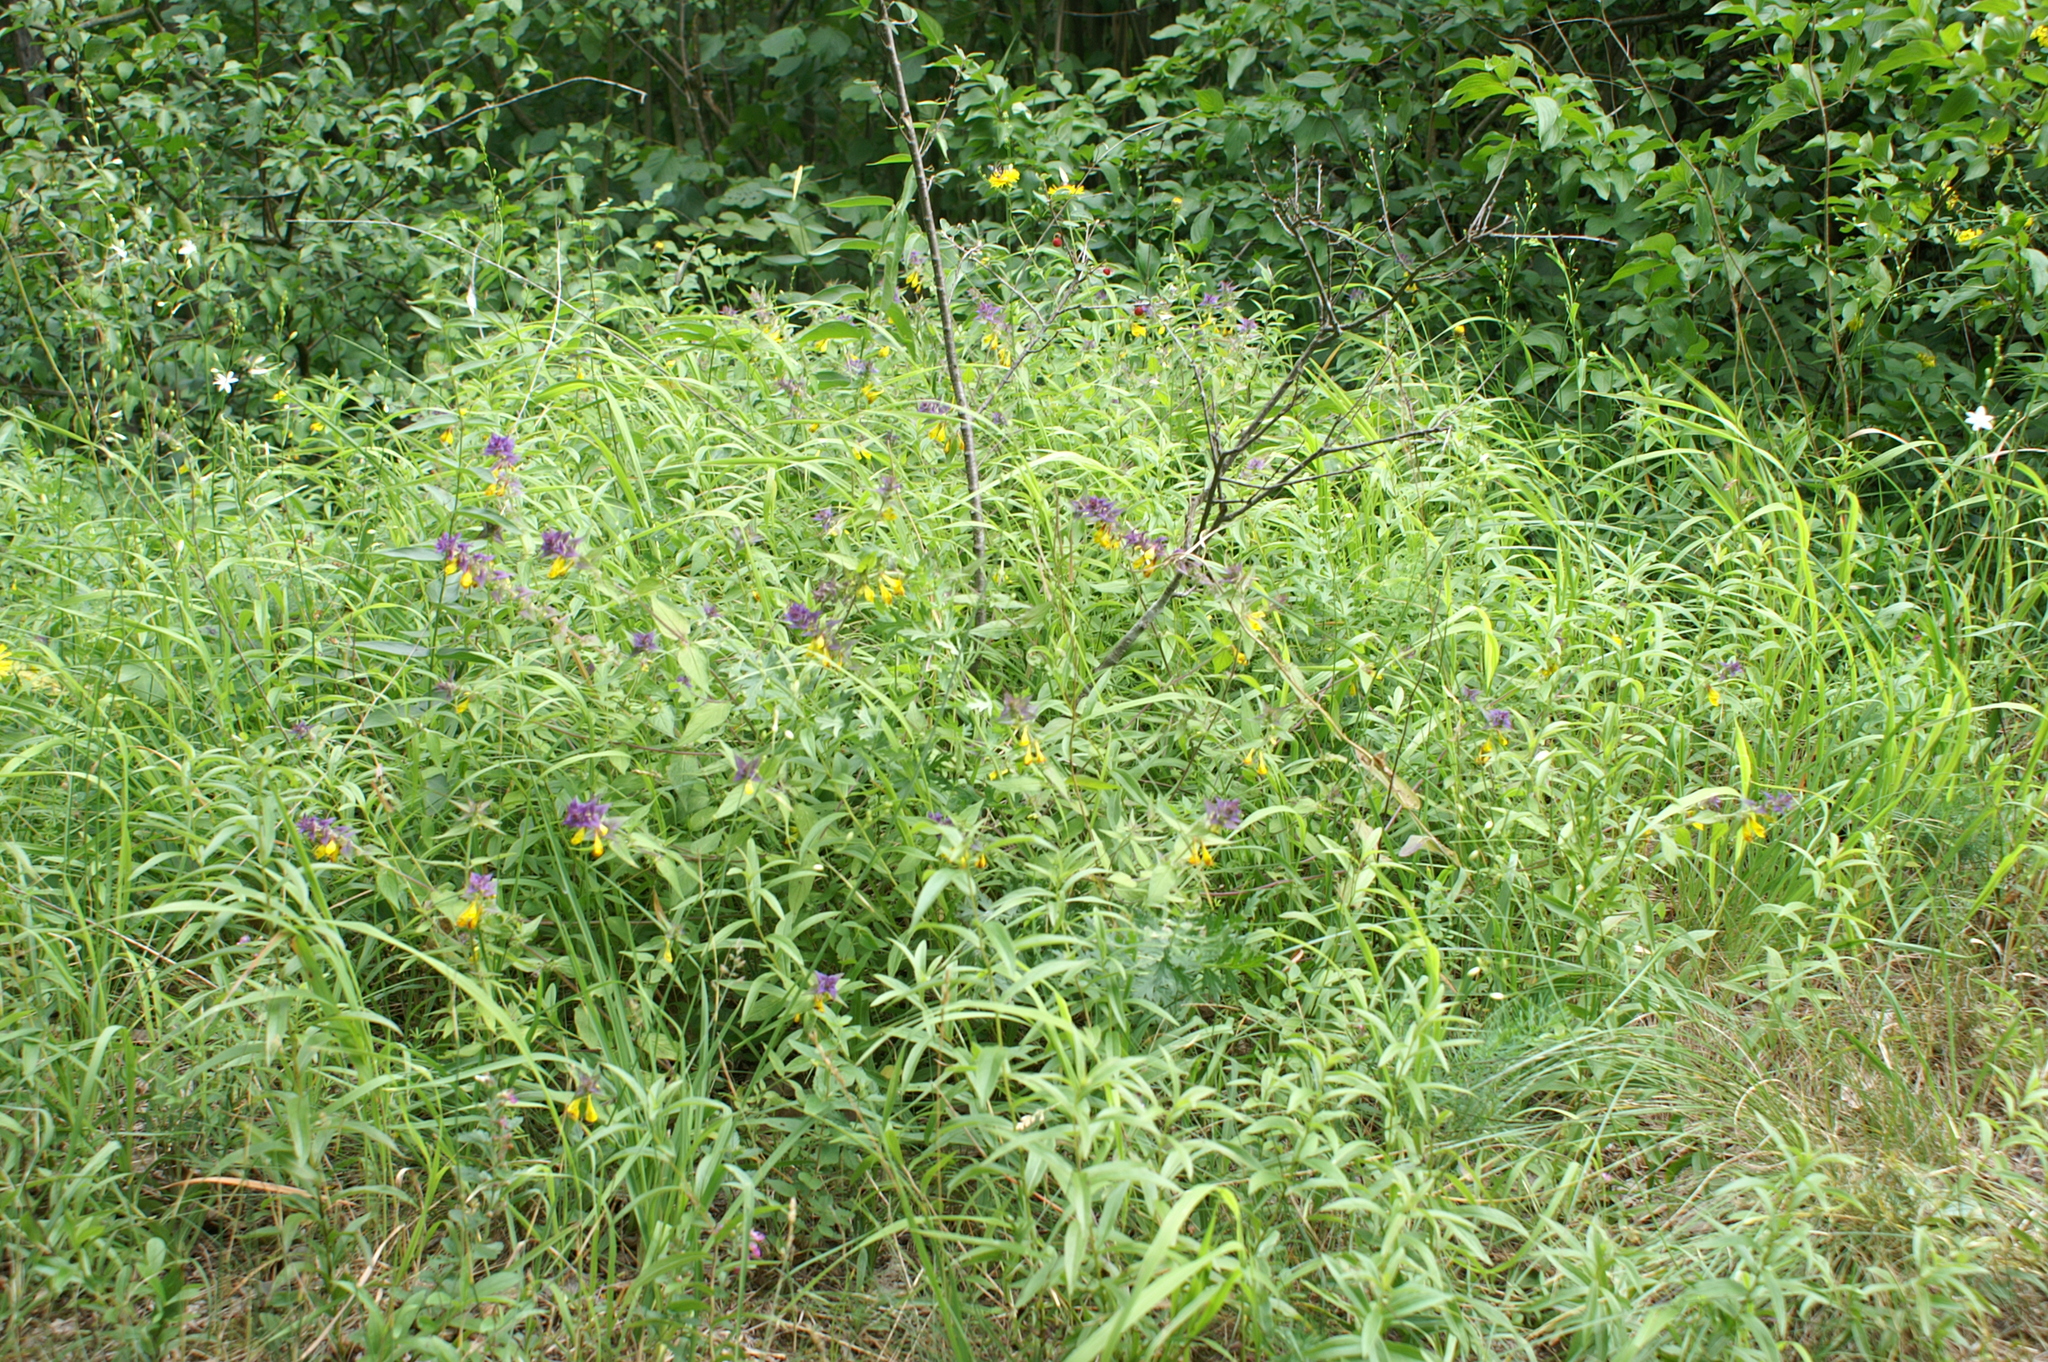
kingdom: Plantae
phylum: Tracheophyta
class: Magnoliopsida
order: Lamiales
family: Orobanchaceae
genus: Melampyrum
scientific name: Melampyrum nemorosum
